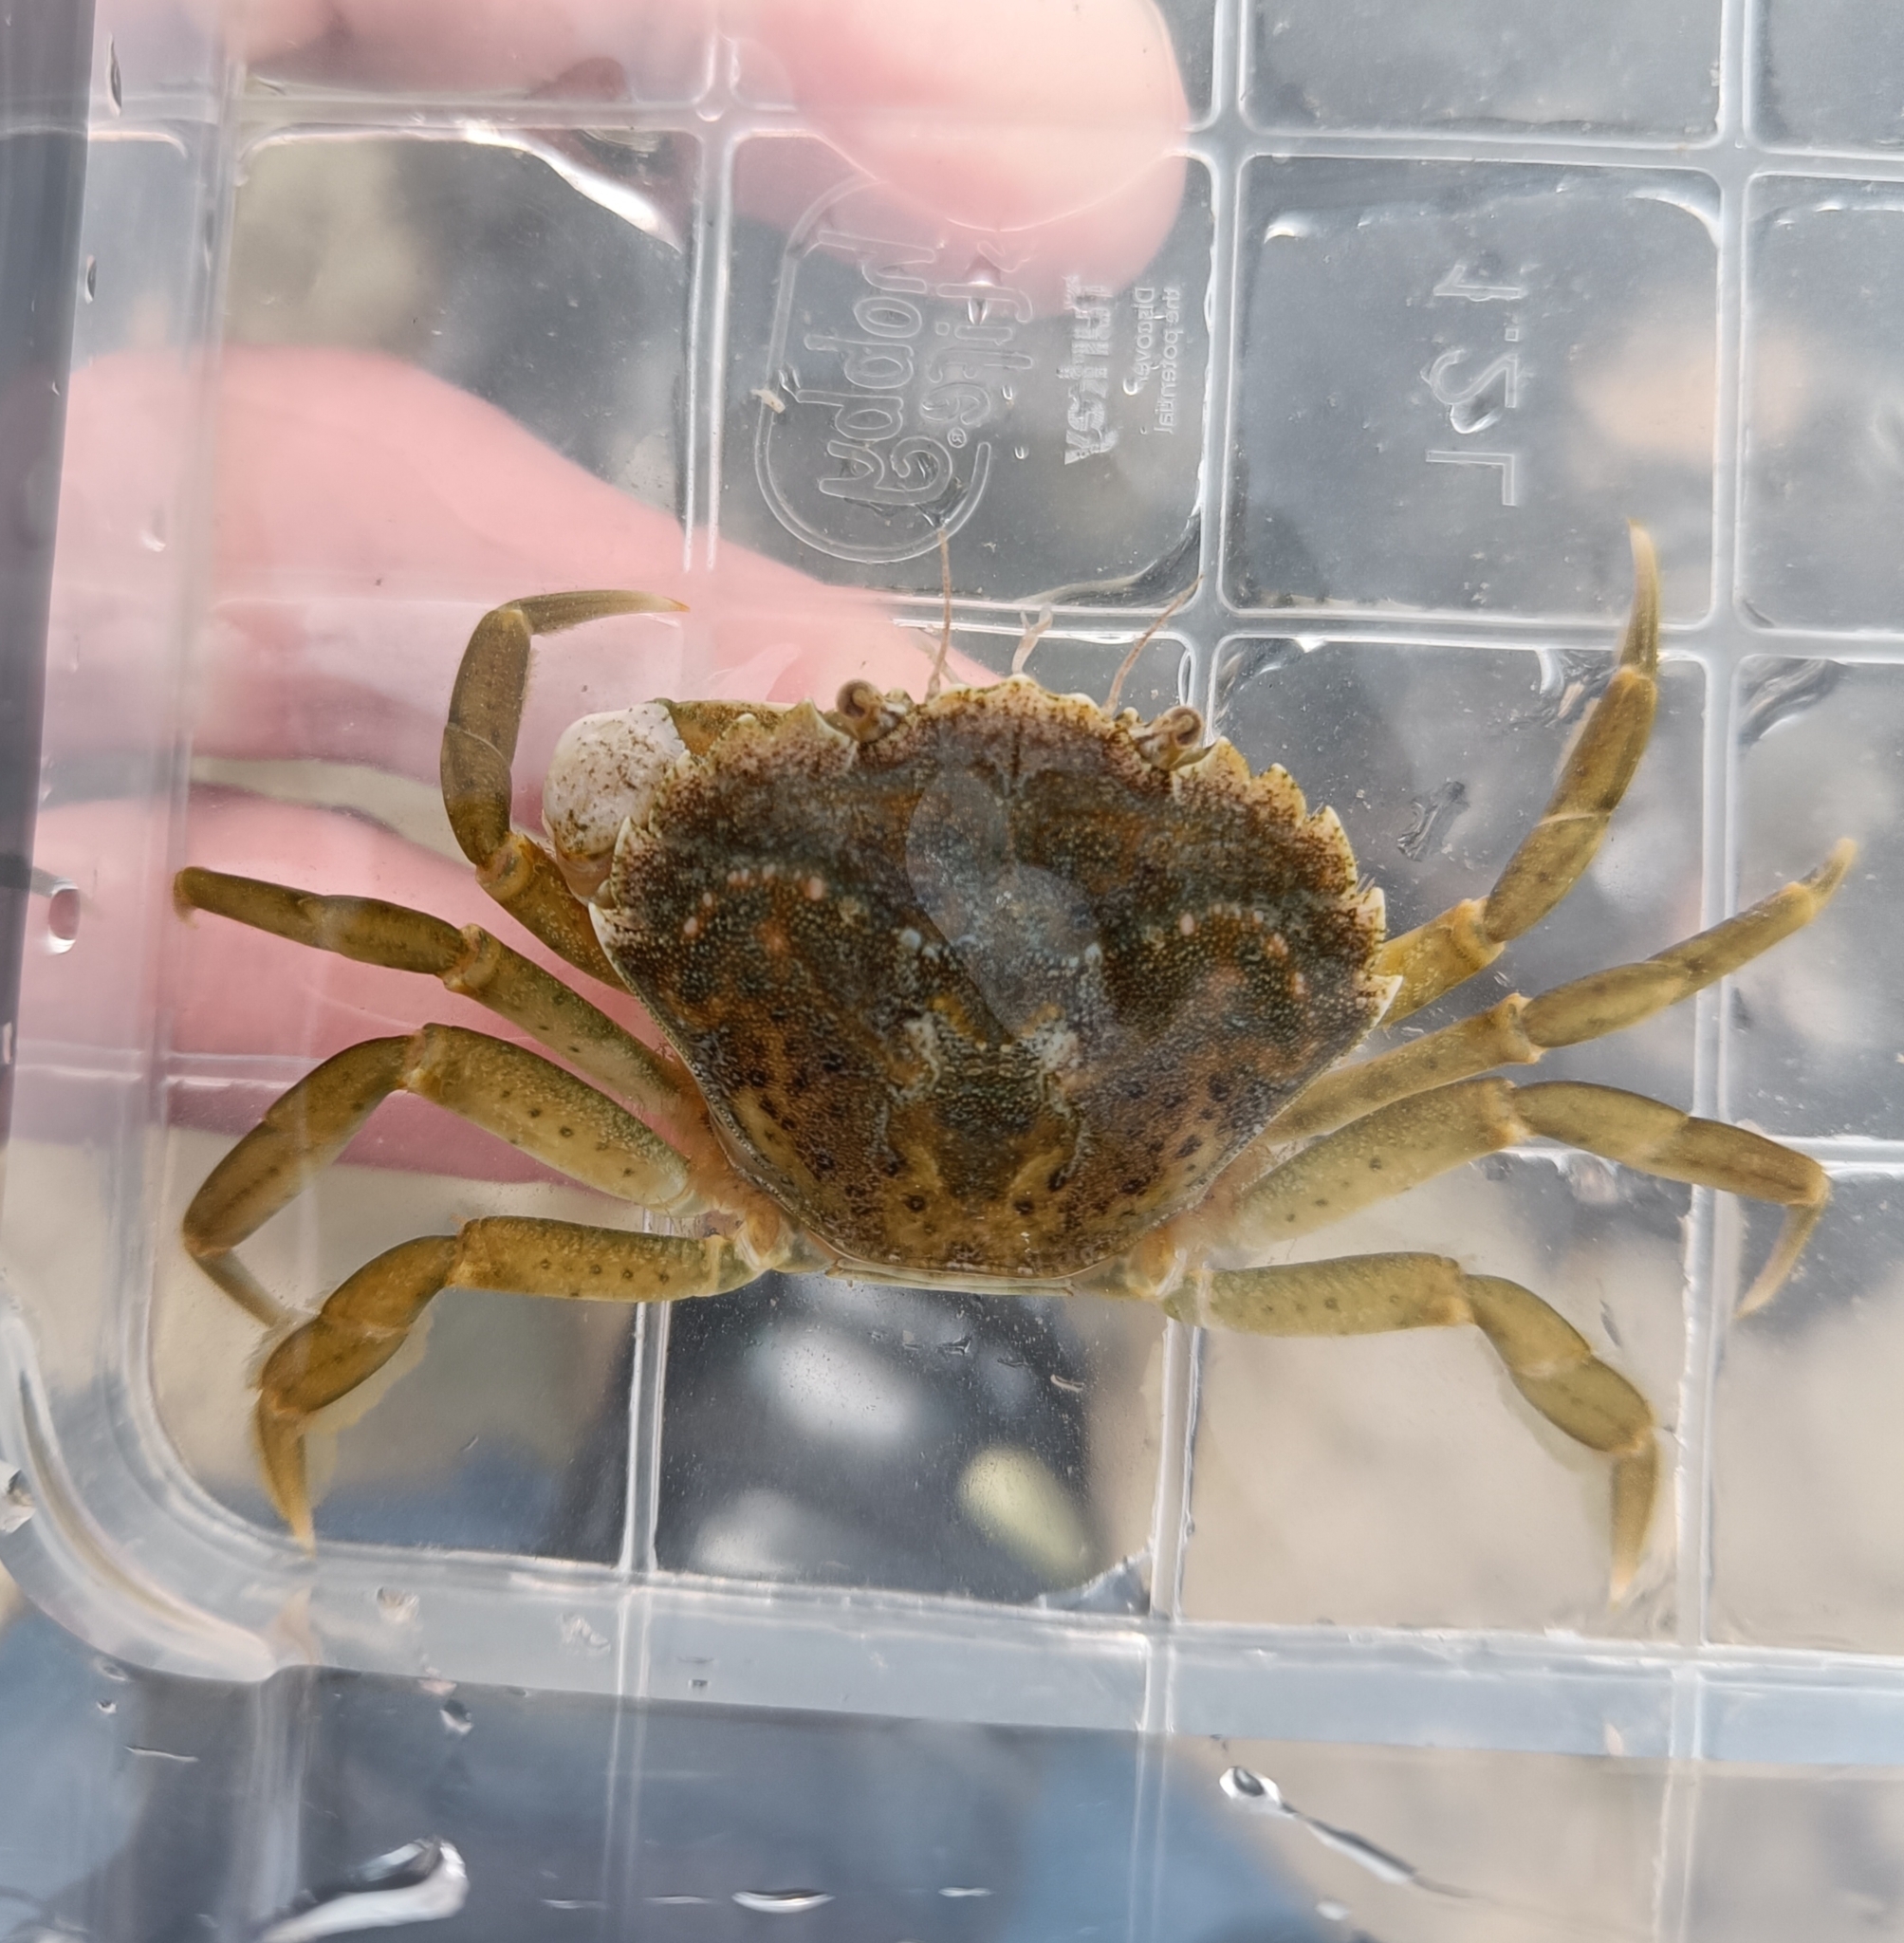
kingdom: Animalia
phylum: Arthropoda
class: Malacostraca
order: Decapoda
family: Carcinidae
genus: Carcinus
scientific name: Carcinus maenas
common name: European green crab
